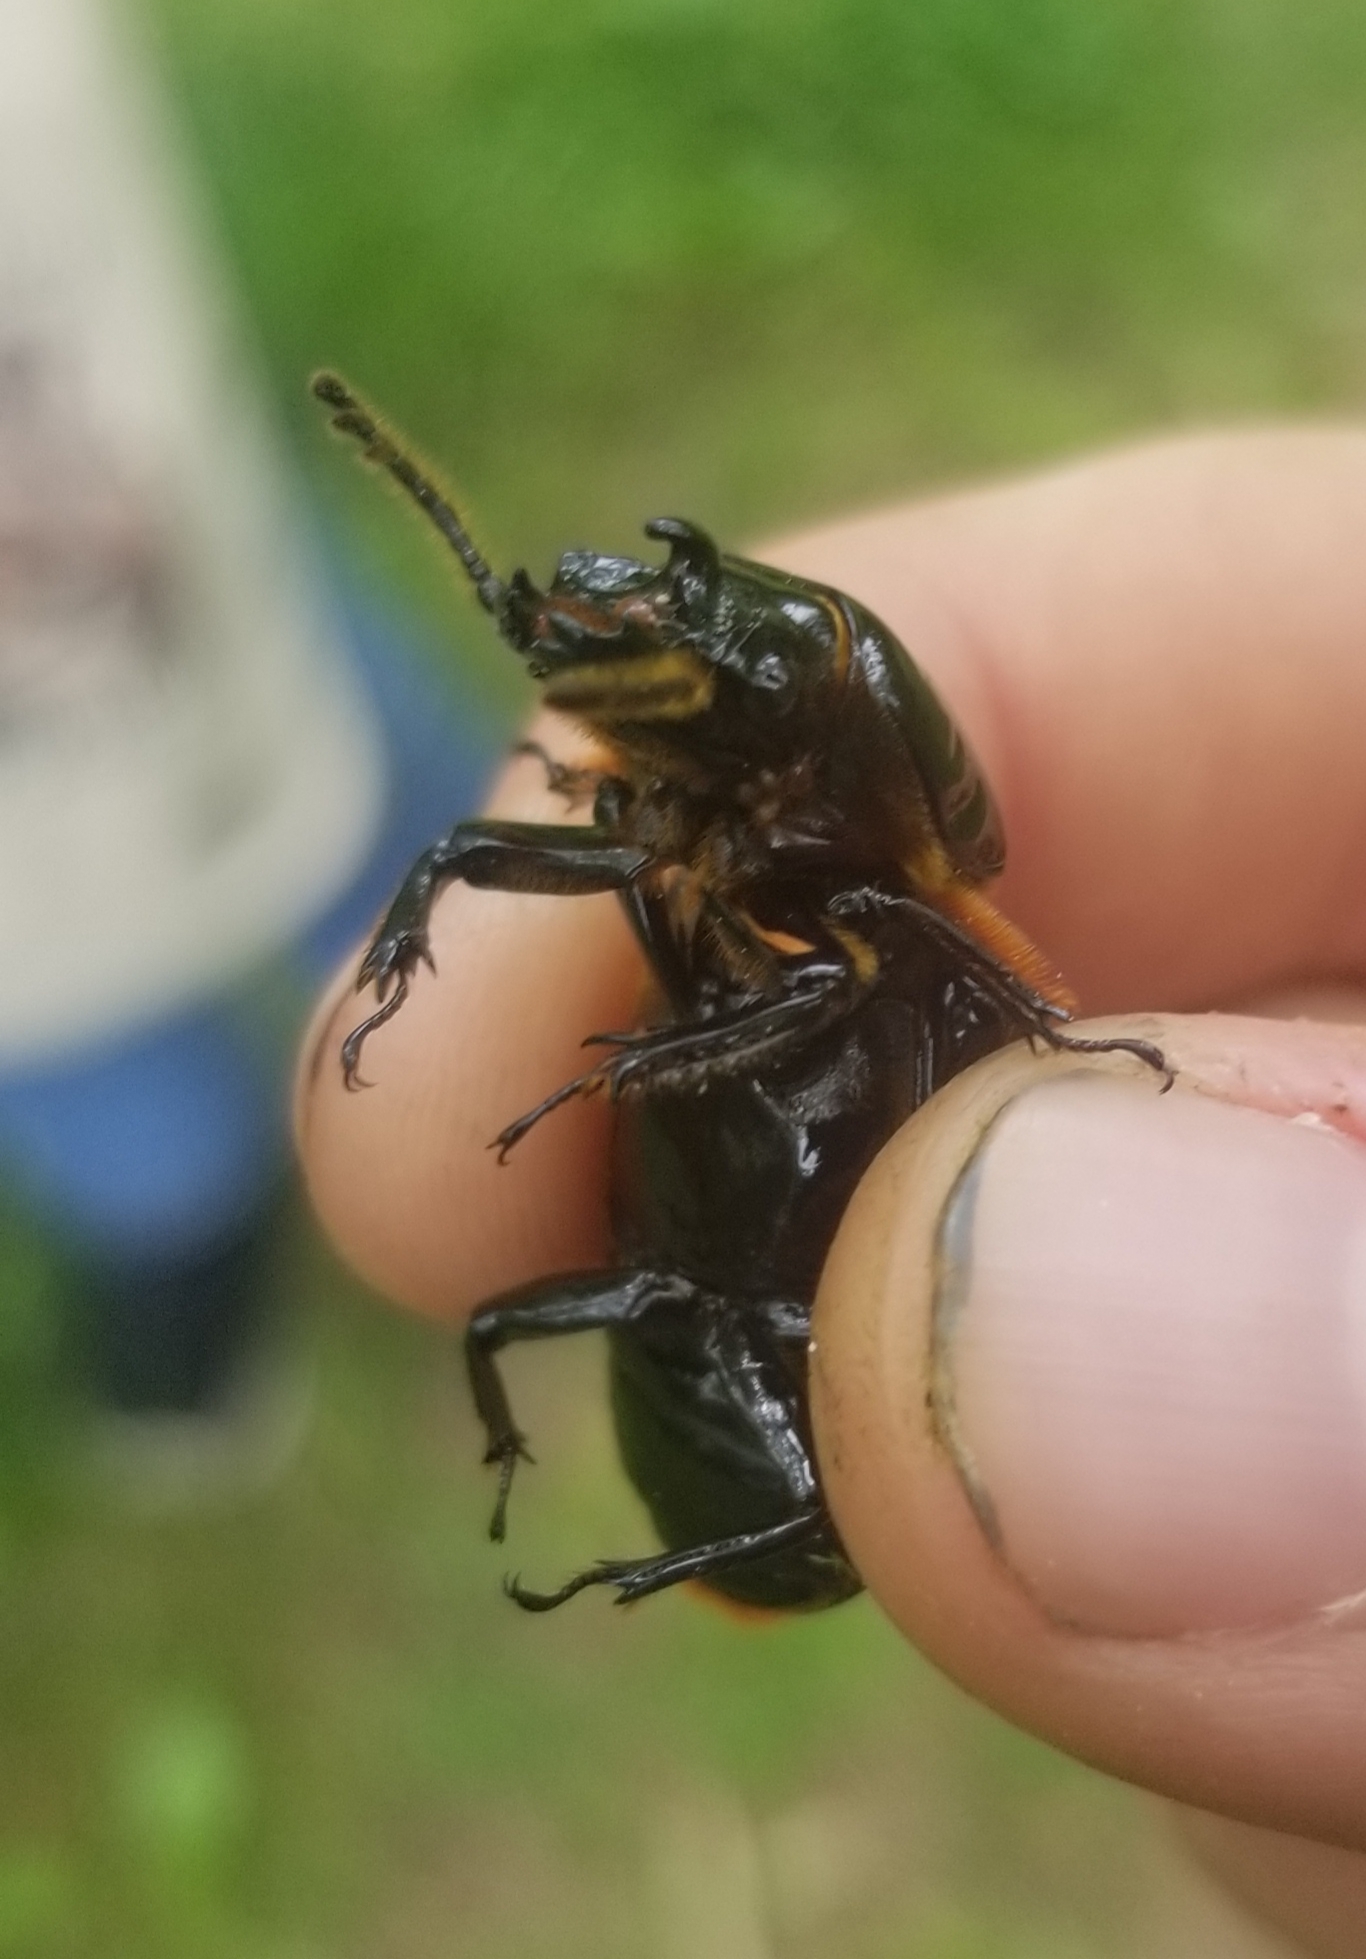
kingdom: Animalia
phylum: Arthropoda
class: Insecta
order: Coleoptera
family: Passalidae
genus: Odontotaenius
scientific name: Odontotaenius disjunctus
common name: Patent leather beetle
